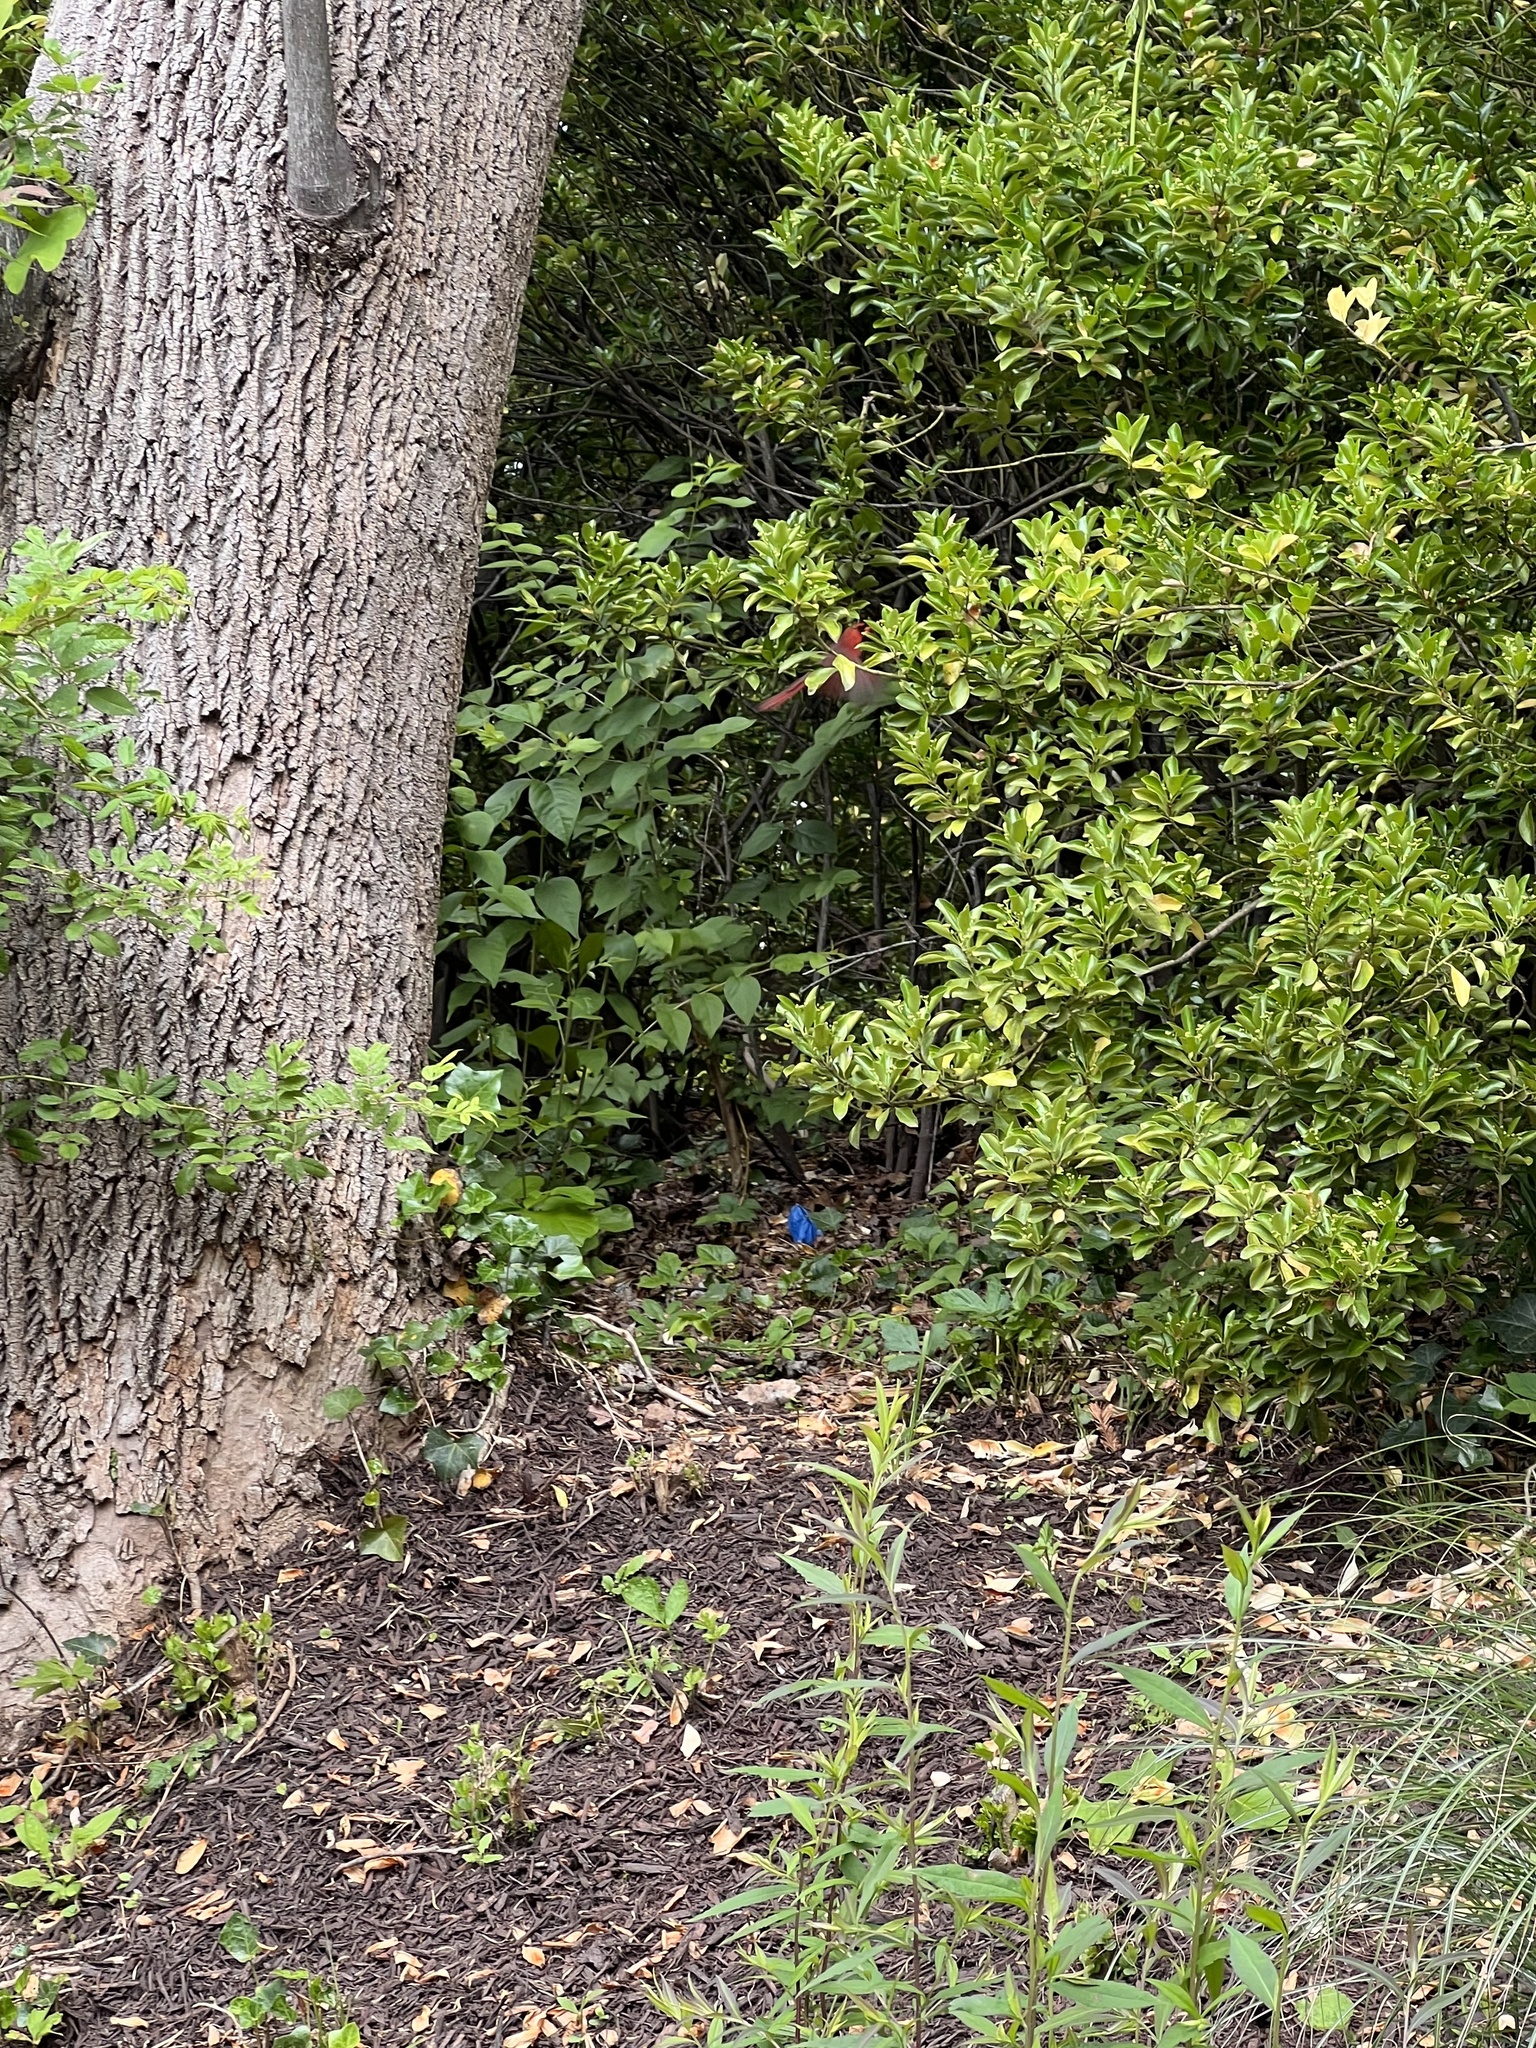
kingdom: Animalia
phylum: Chordata
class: Aves
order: Passeriformes
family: Cardinalidae
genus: Cardinalis
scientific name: Cardinalis cardinalis
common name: Northern cardinal
